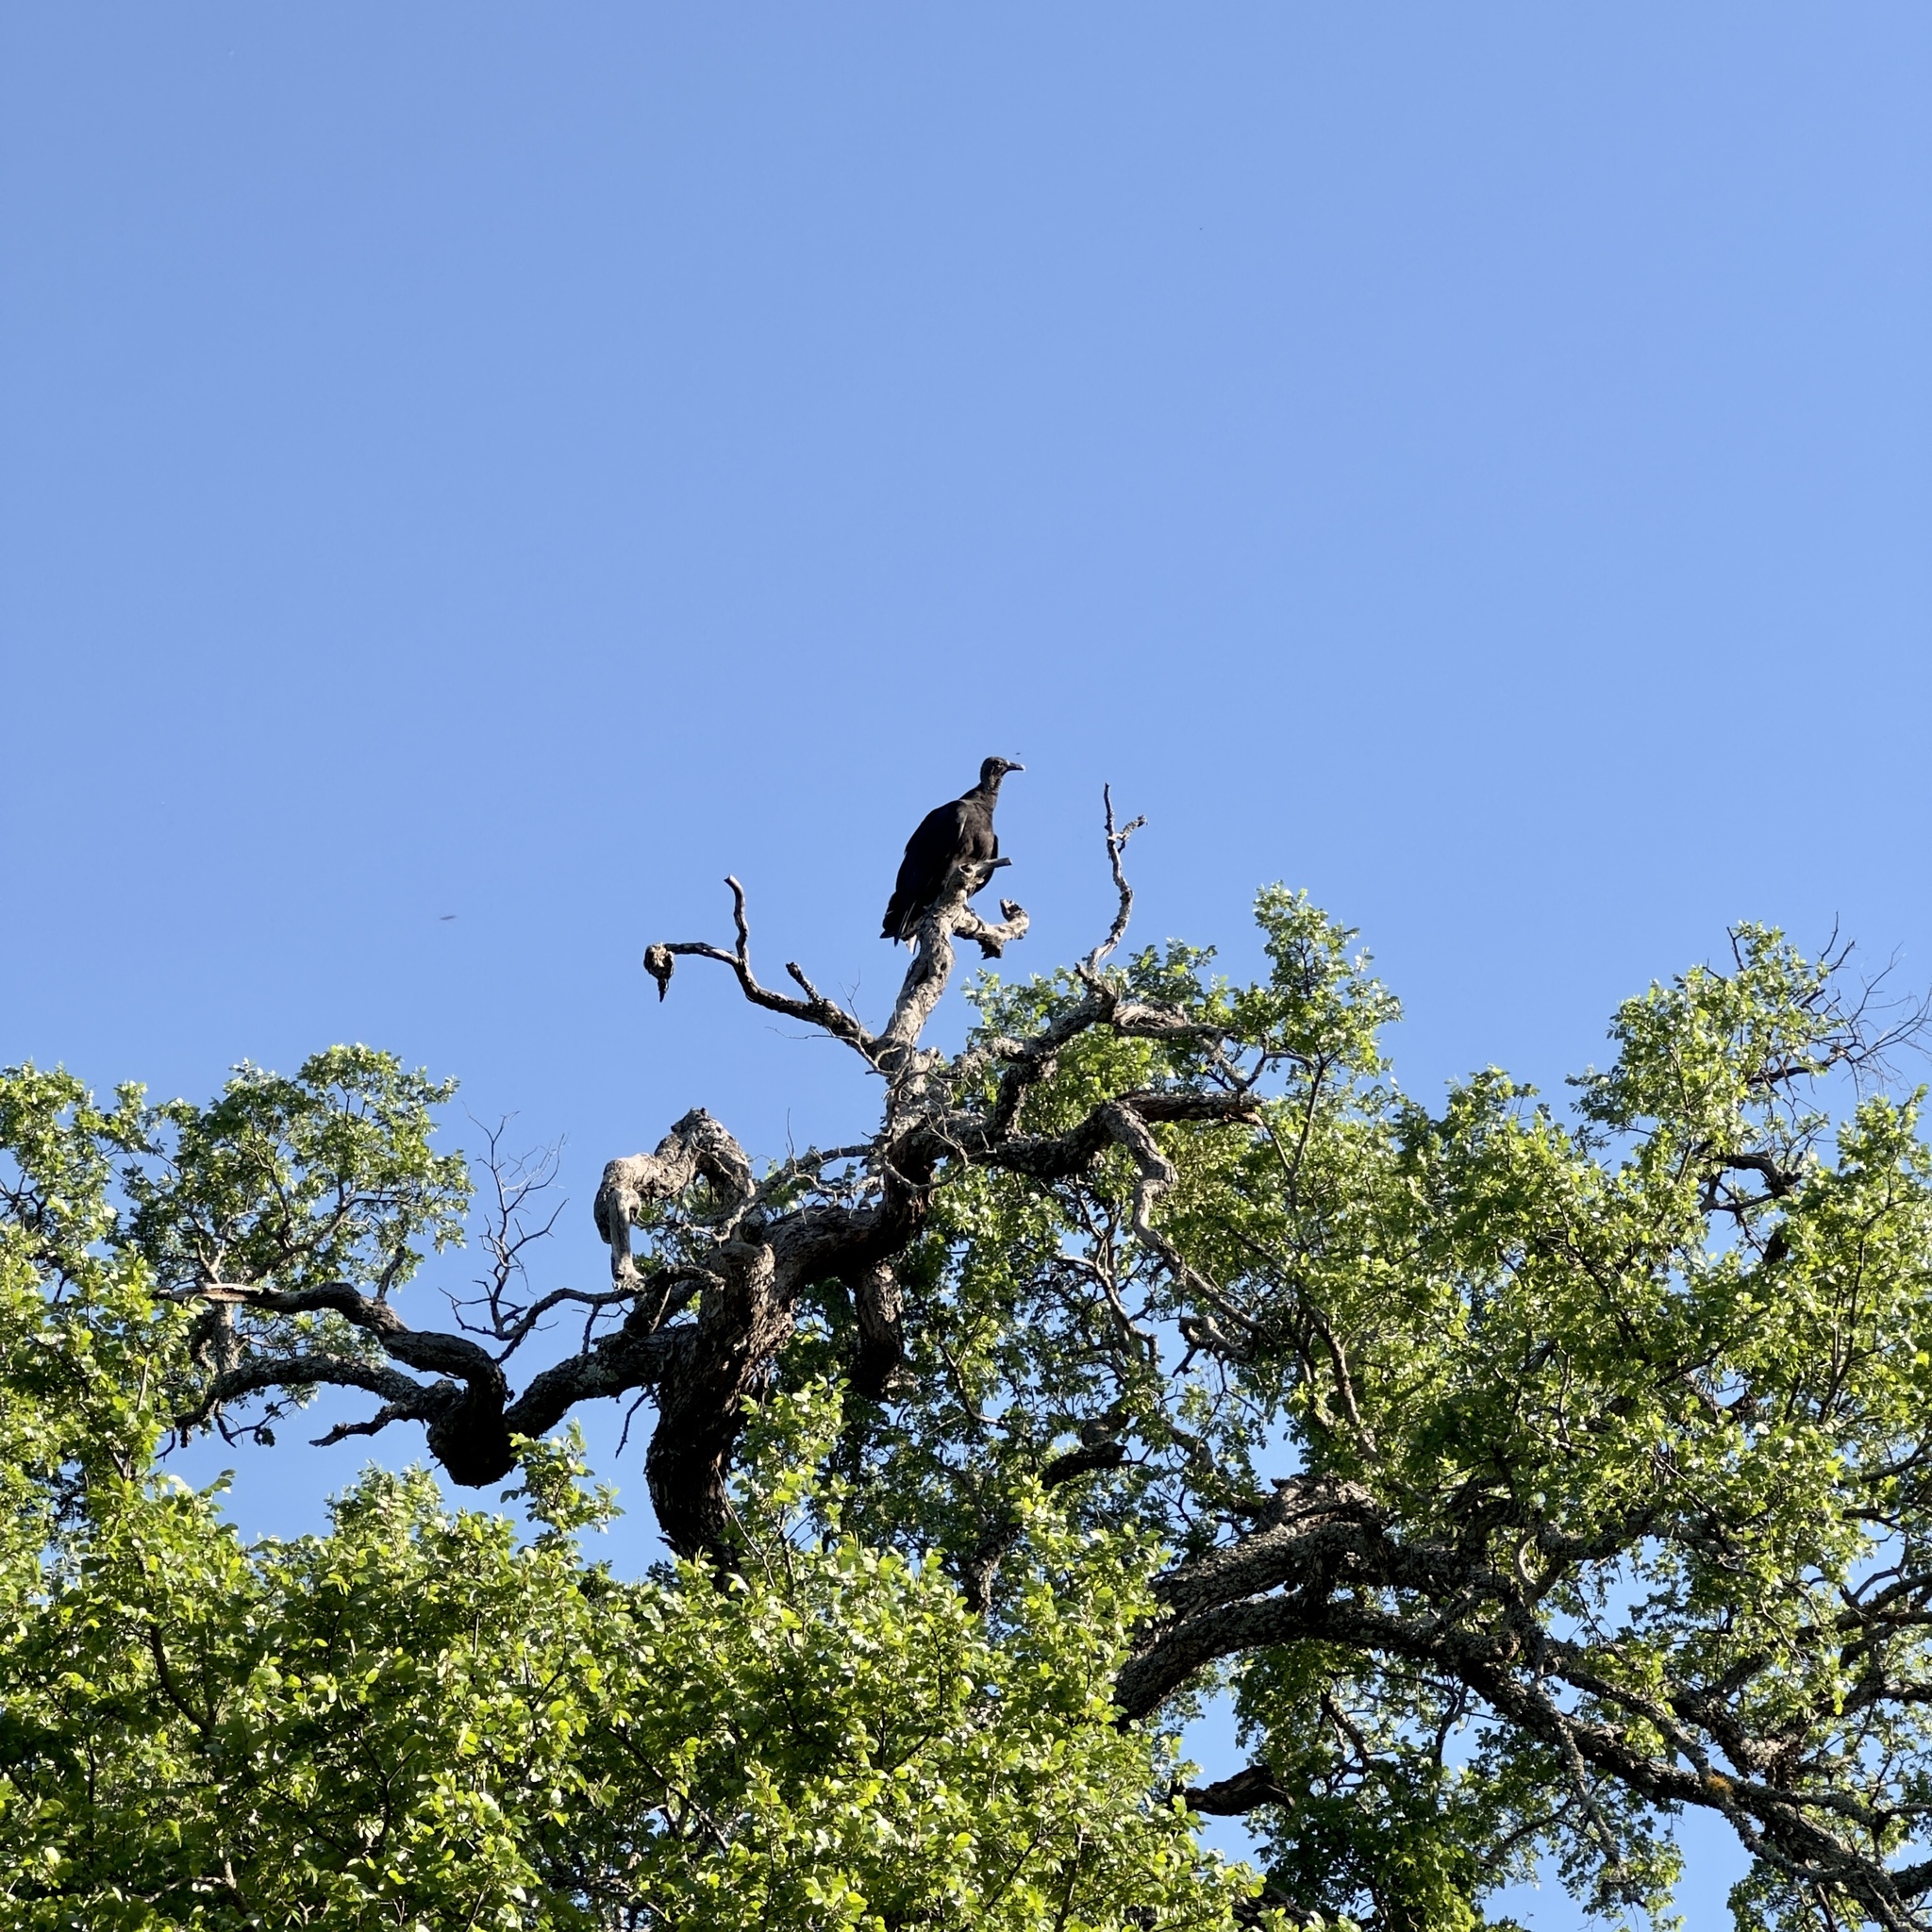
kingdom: Animalia
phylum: Chordata
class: Aves
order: Accipitriformes
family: Cathartidae
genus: Coragyps
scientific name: Coragyps atratus
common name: Black vulture
